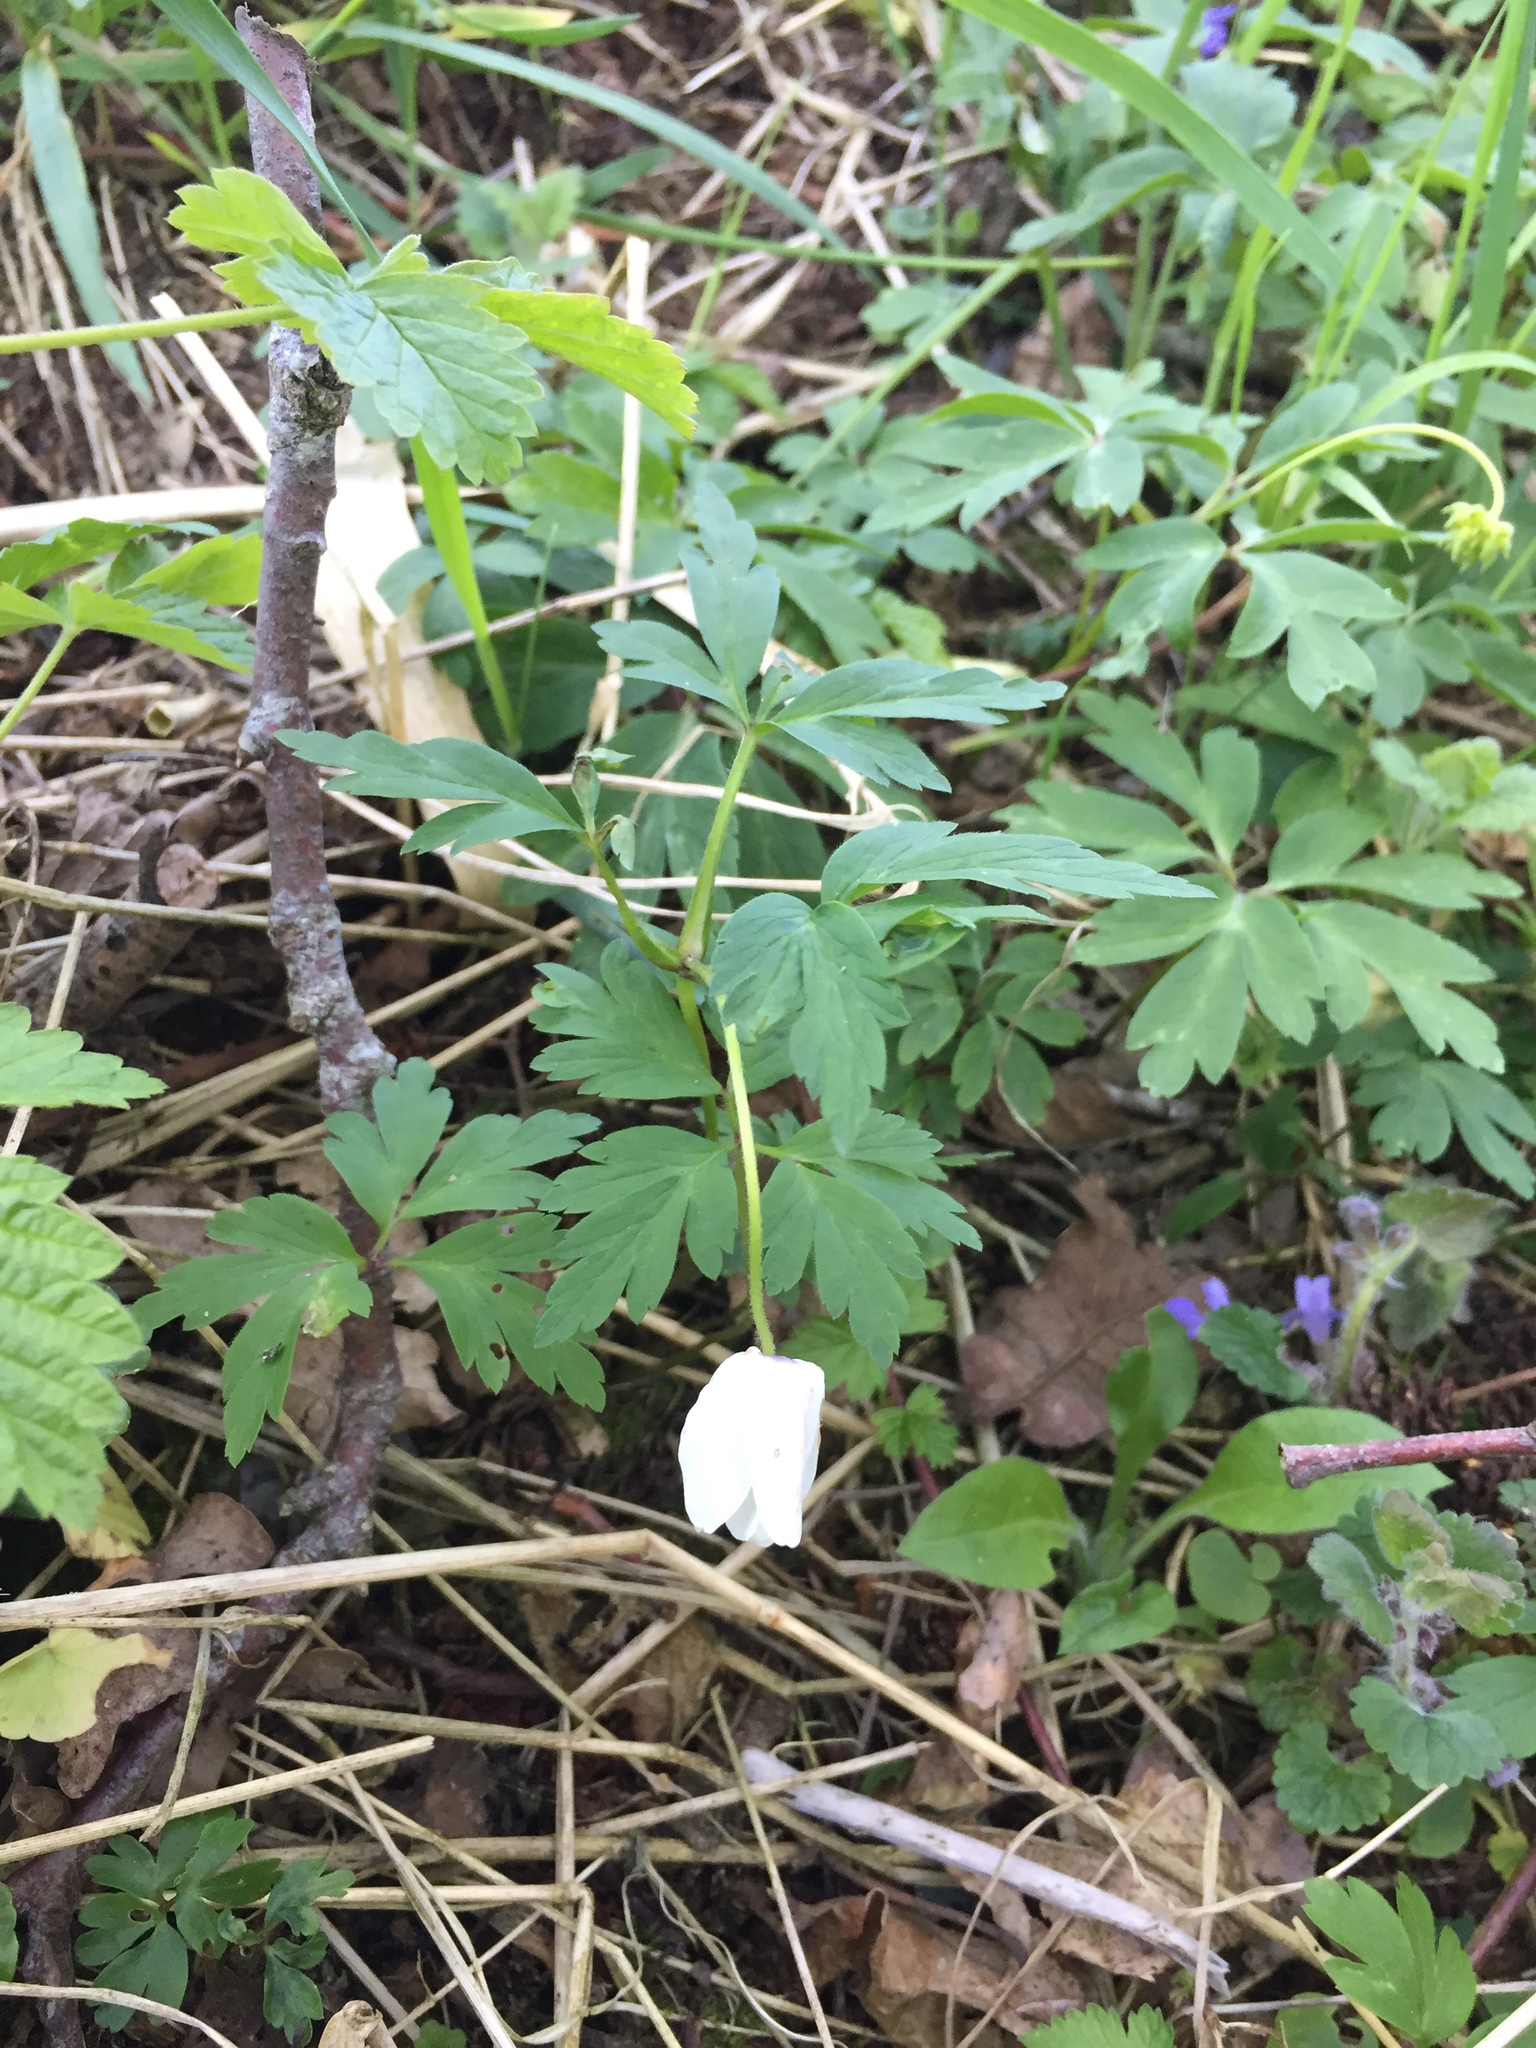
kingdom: Plantae
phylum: Tracheophyta
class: Magnoliopsida
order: Ranunculales
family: Ranunculaceae
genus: Anemone
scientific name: Anemone nemorosa
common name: Wood anemone
